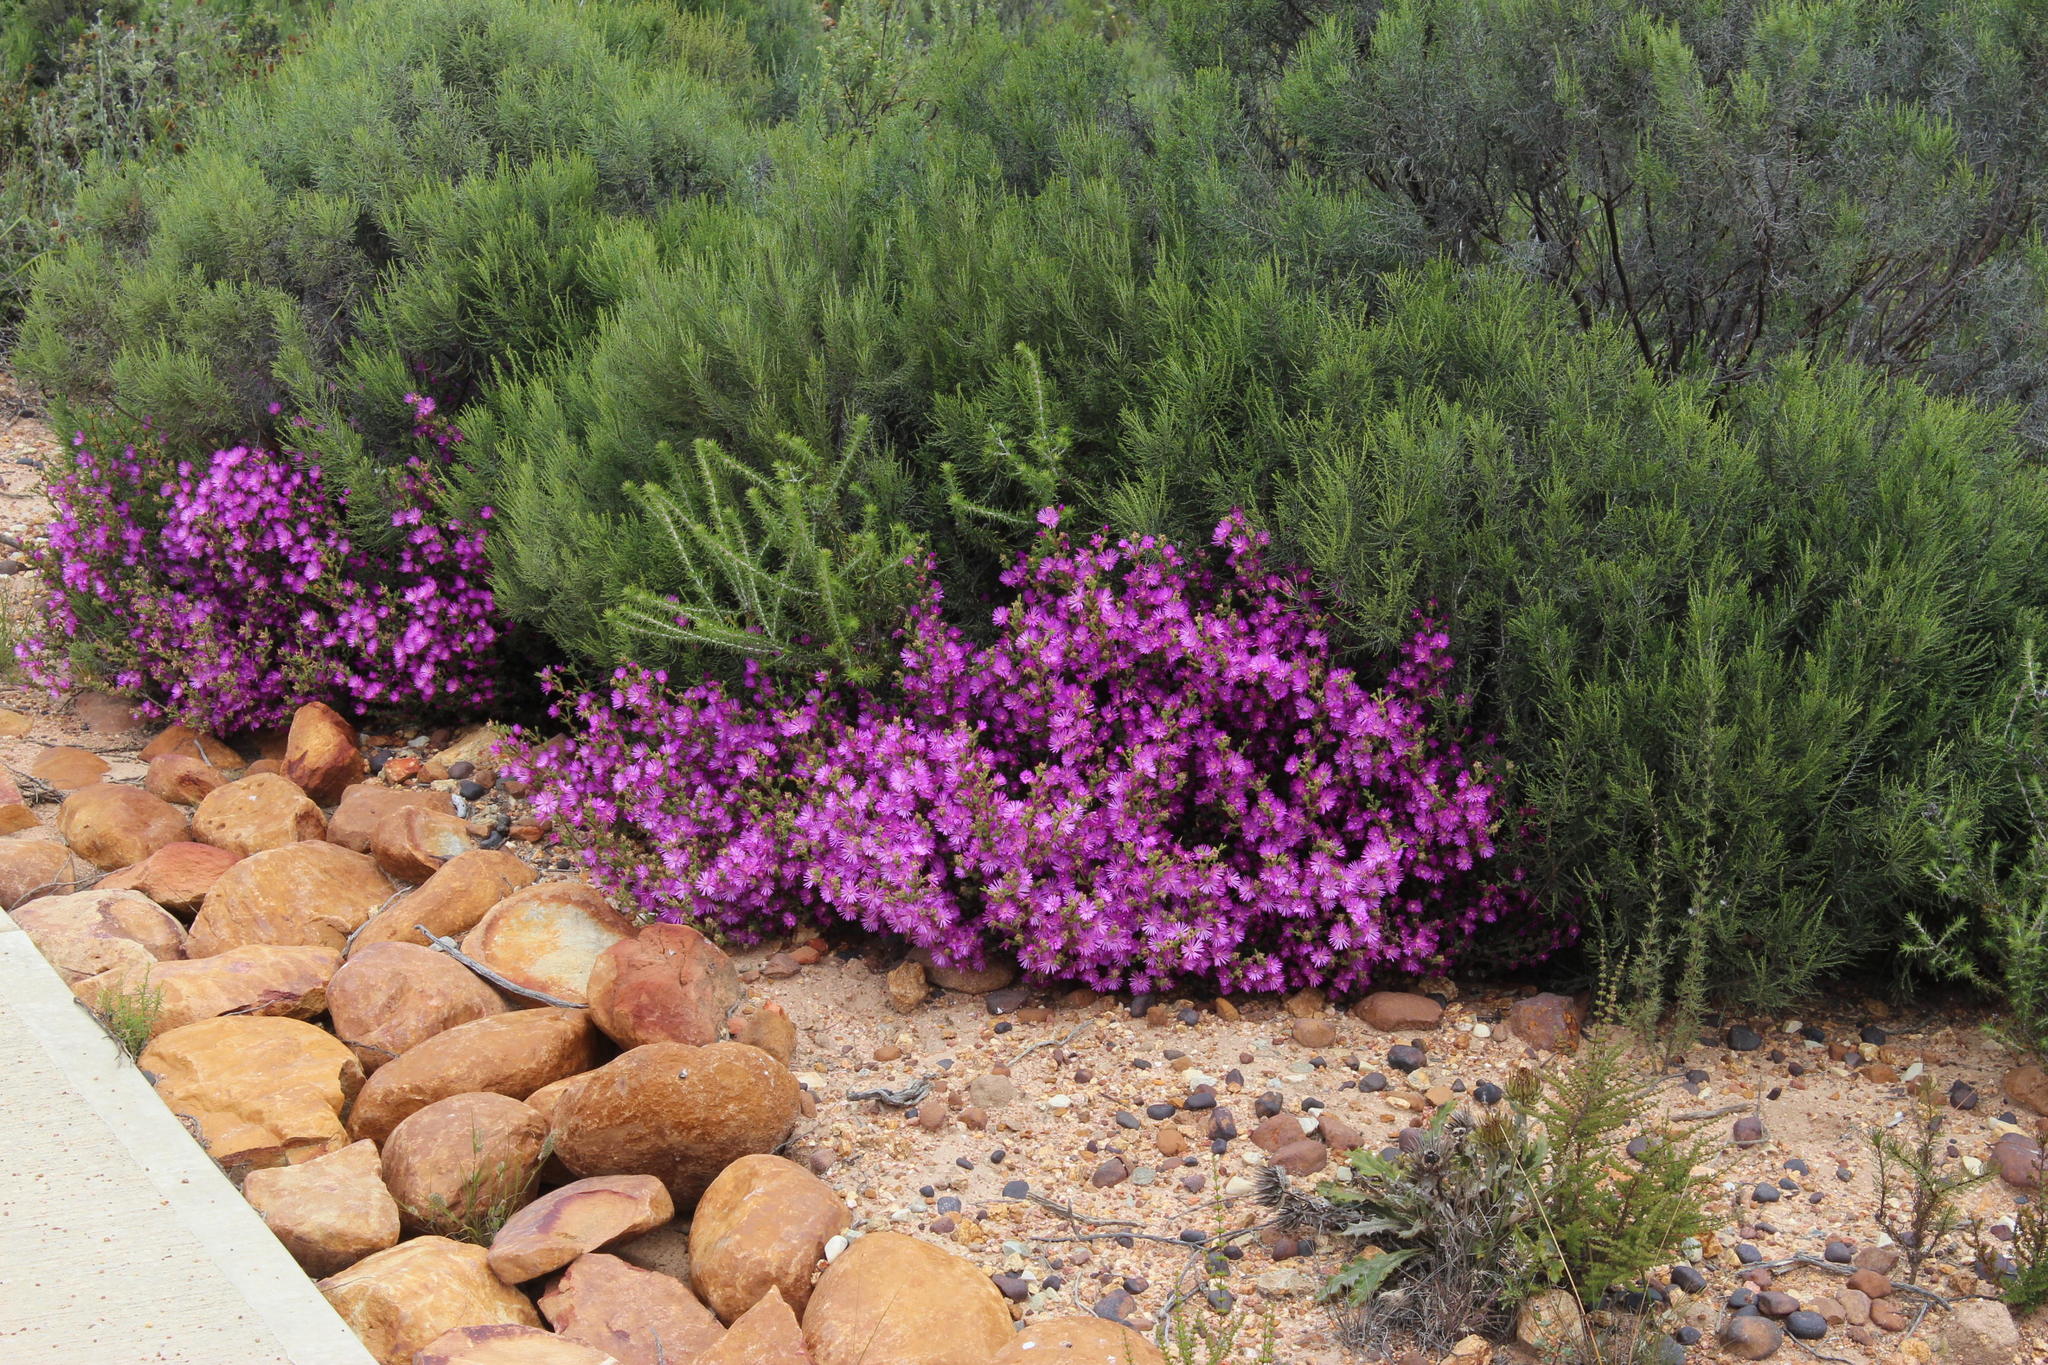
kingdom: Plantae
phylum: Tracheophyta
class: Magnoliopsida
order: Caryophyllales
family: Aizoaceae
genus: Delosperma
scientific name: Delosperma asperulum
